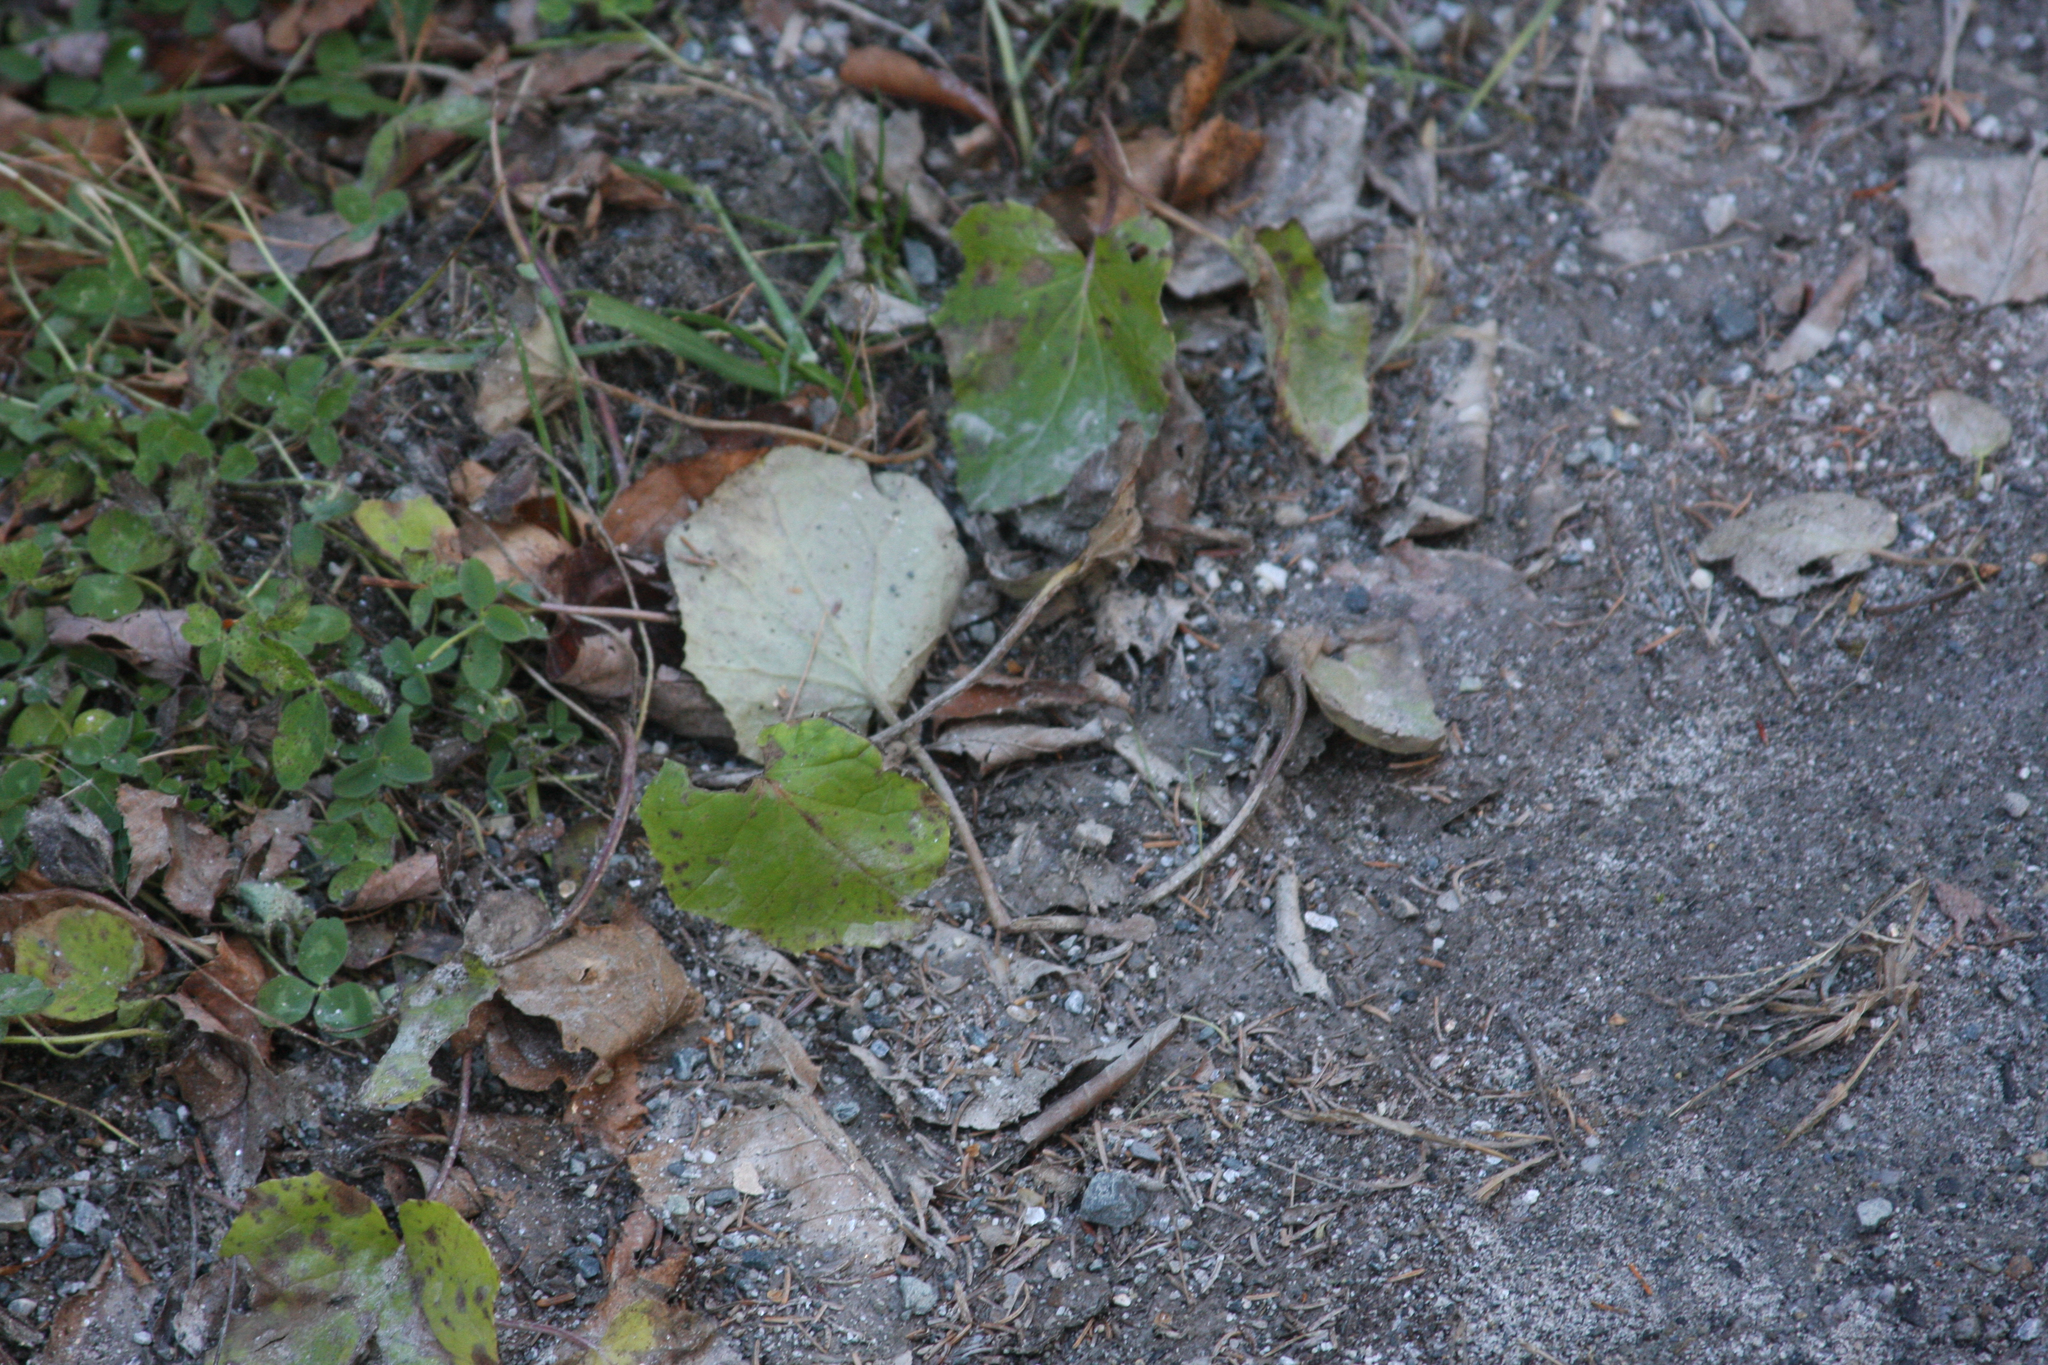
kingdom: Plantae
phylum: Tracheophyta
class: Magnoliopsida
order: Asterales
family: Asteraceae
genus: Tussilago
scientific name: Tussilago farfara
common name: Coltsfoot
